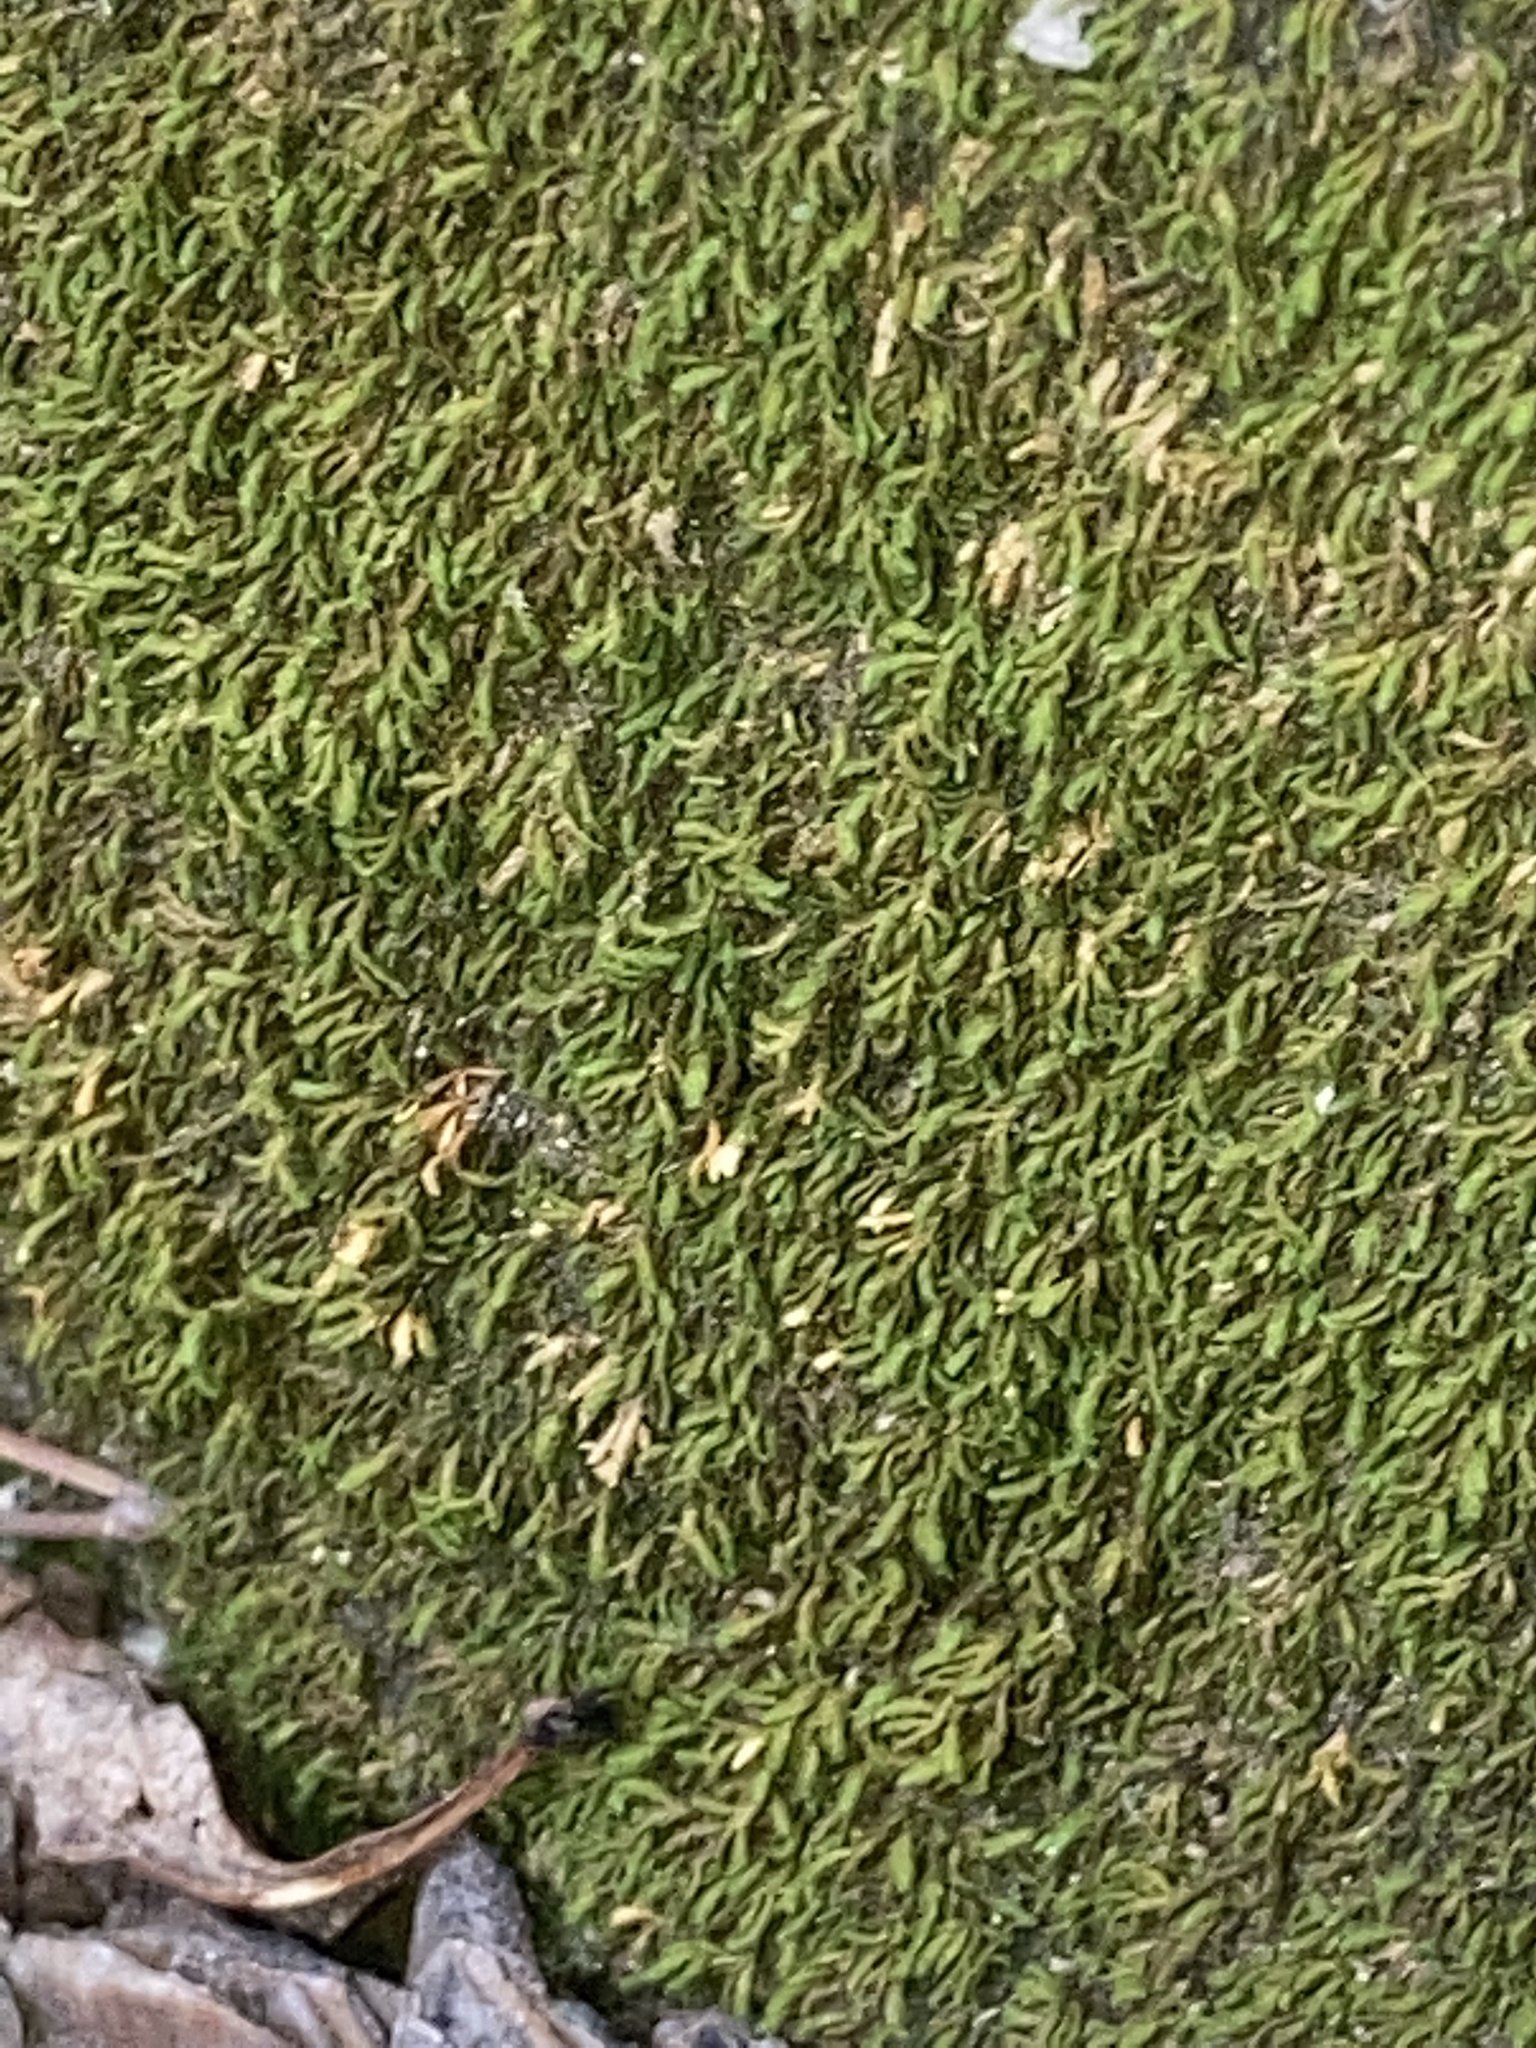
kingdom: Plantae
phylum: Bryophyta
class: Bryopsida
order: Hypnales
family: Neckeraceae
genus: Pseudanomodon
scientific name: Pseudanomodon attenuatus
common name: Tree-skirt moss
